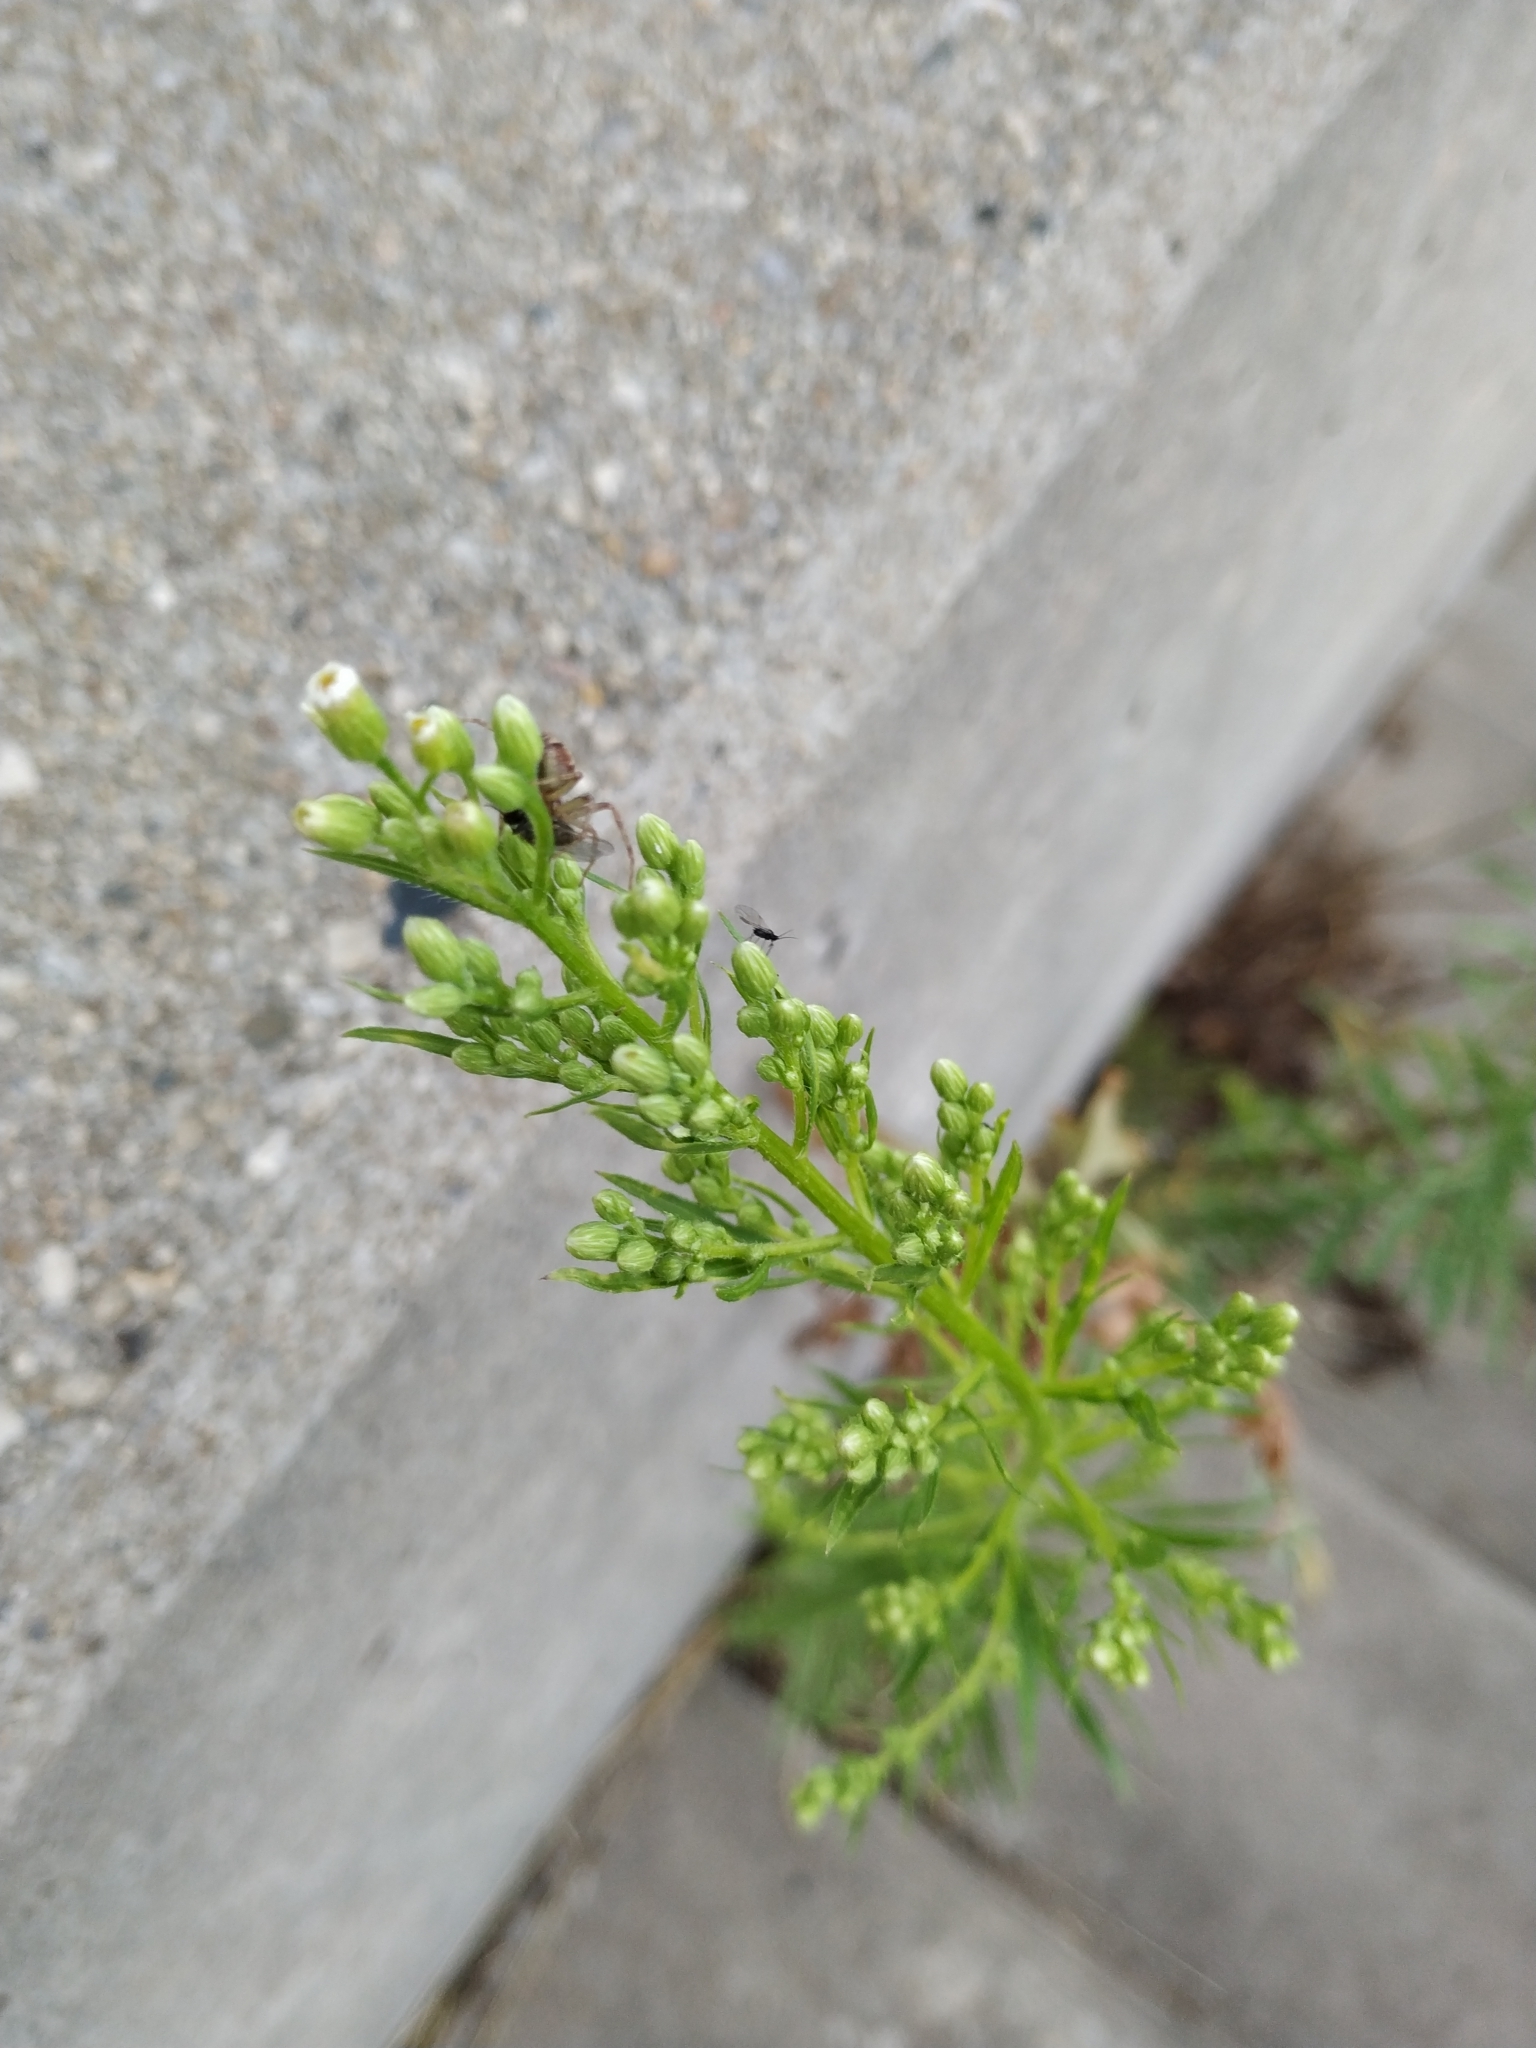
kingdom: Plantae
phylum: Tracheophyta
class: Magnoliopsida
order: Asterales
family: Asteraceae
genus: Erigeron
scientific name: Erigeron canadensis
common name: Canadian fleabane
